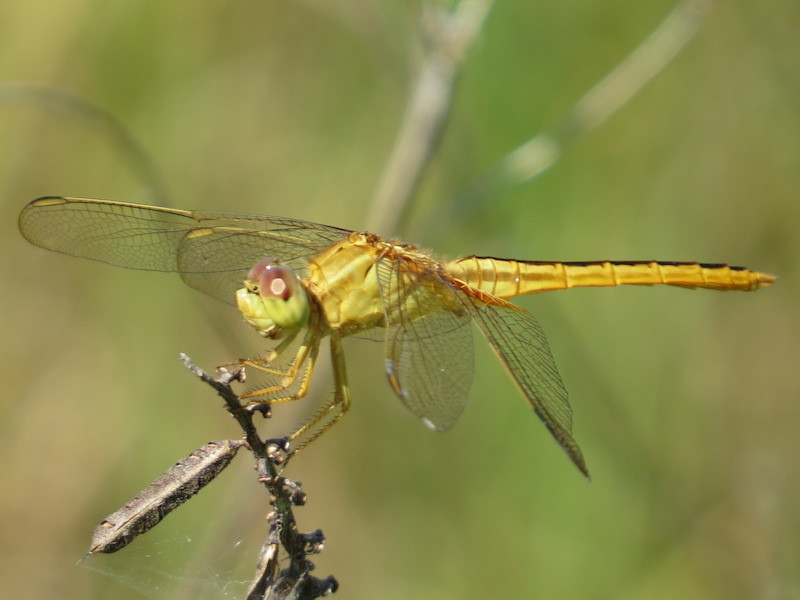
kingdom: Animalia
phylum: Arthropoda
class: Insecta
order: Odonata
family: Libellulidae
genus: Crocothemis
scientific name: Crocothemis servilia
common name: Scarlet skimmer
